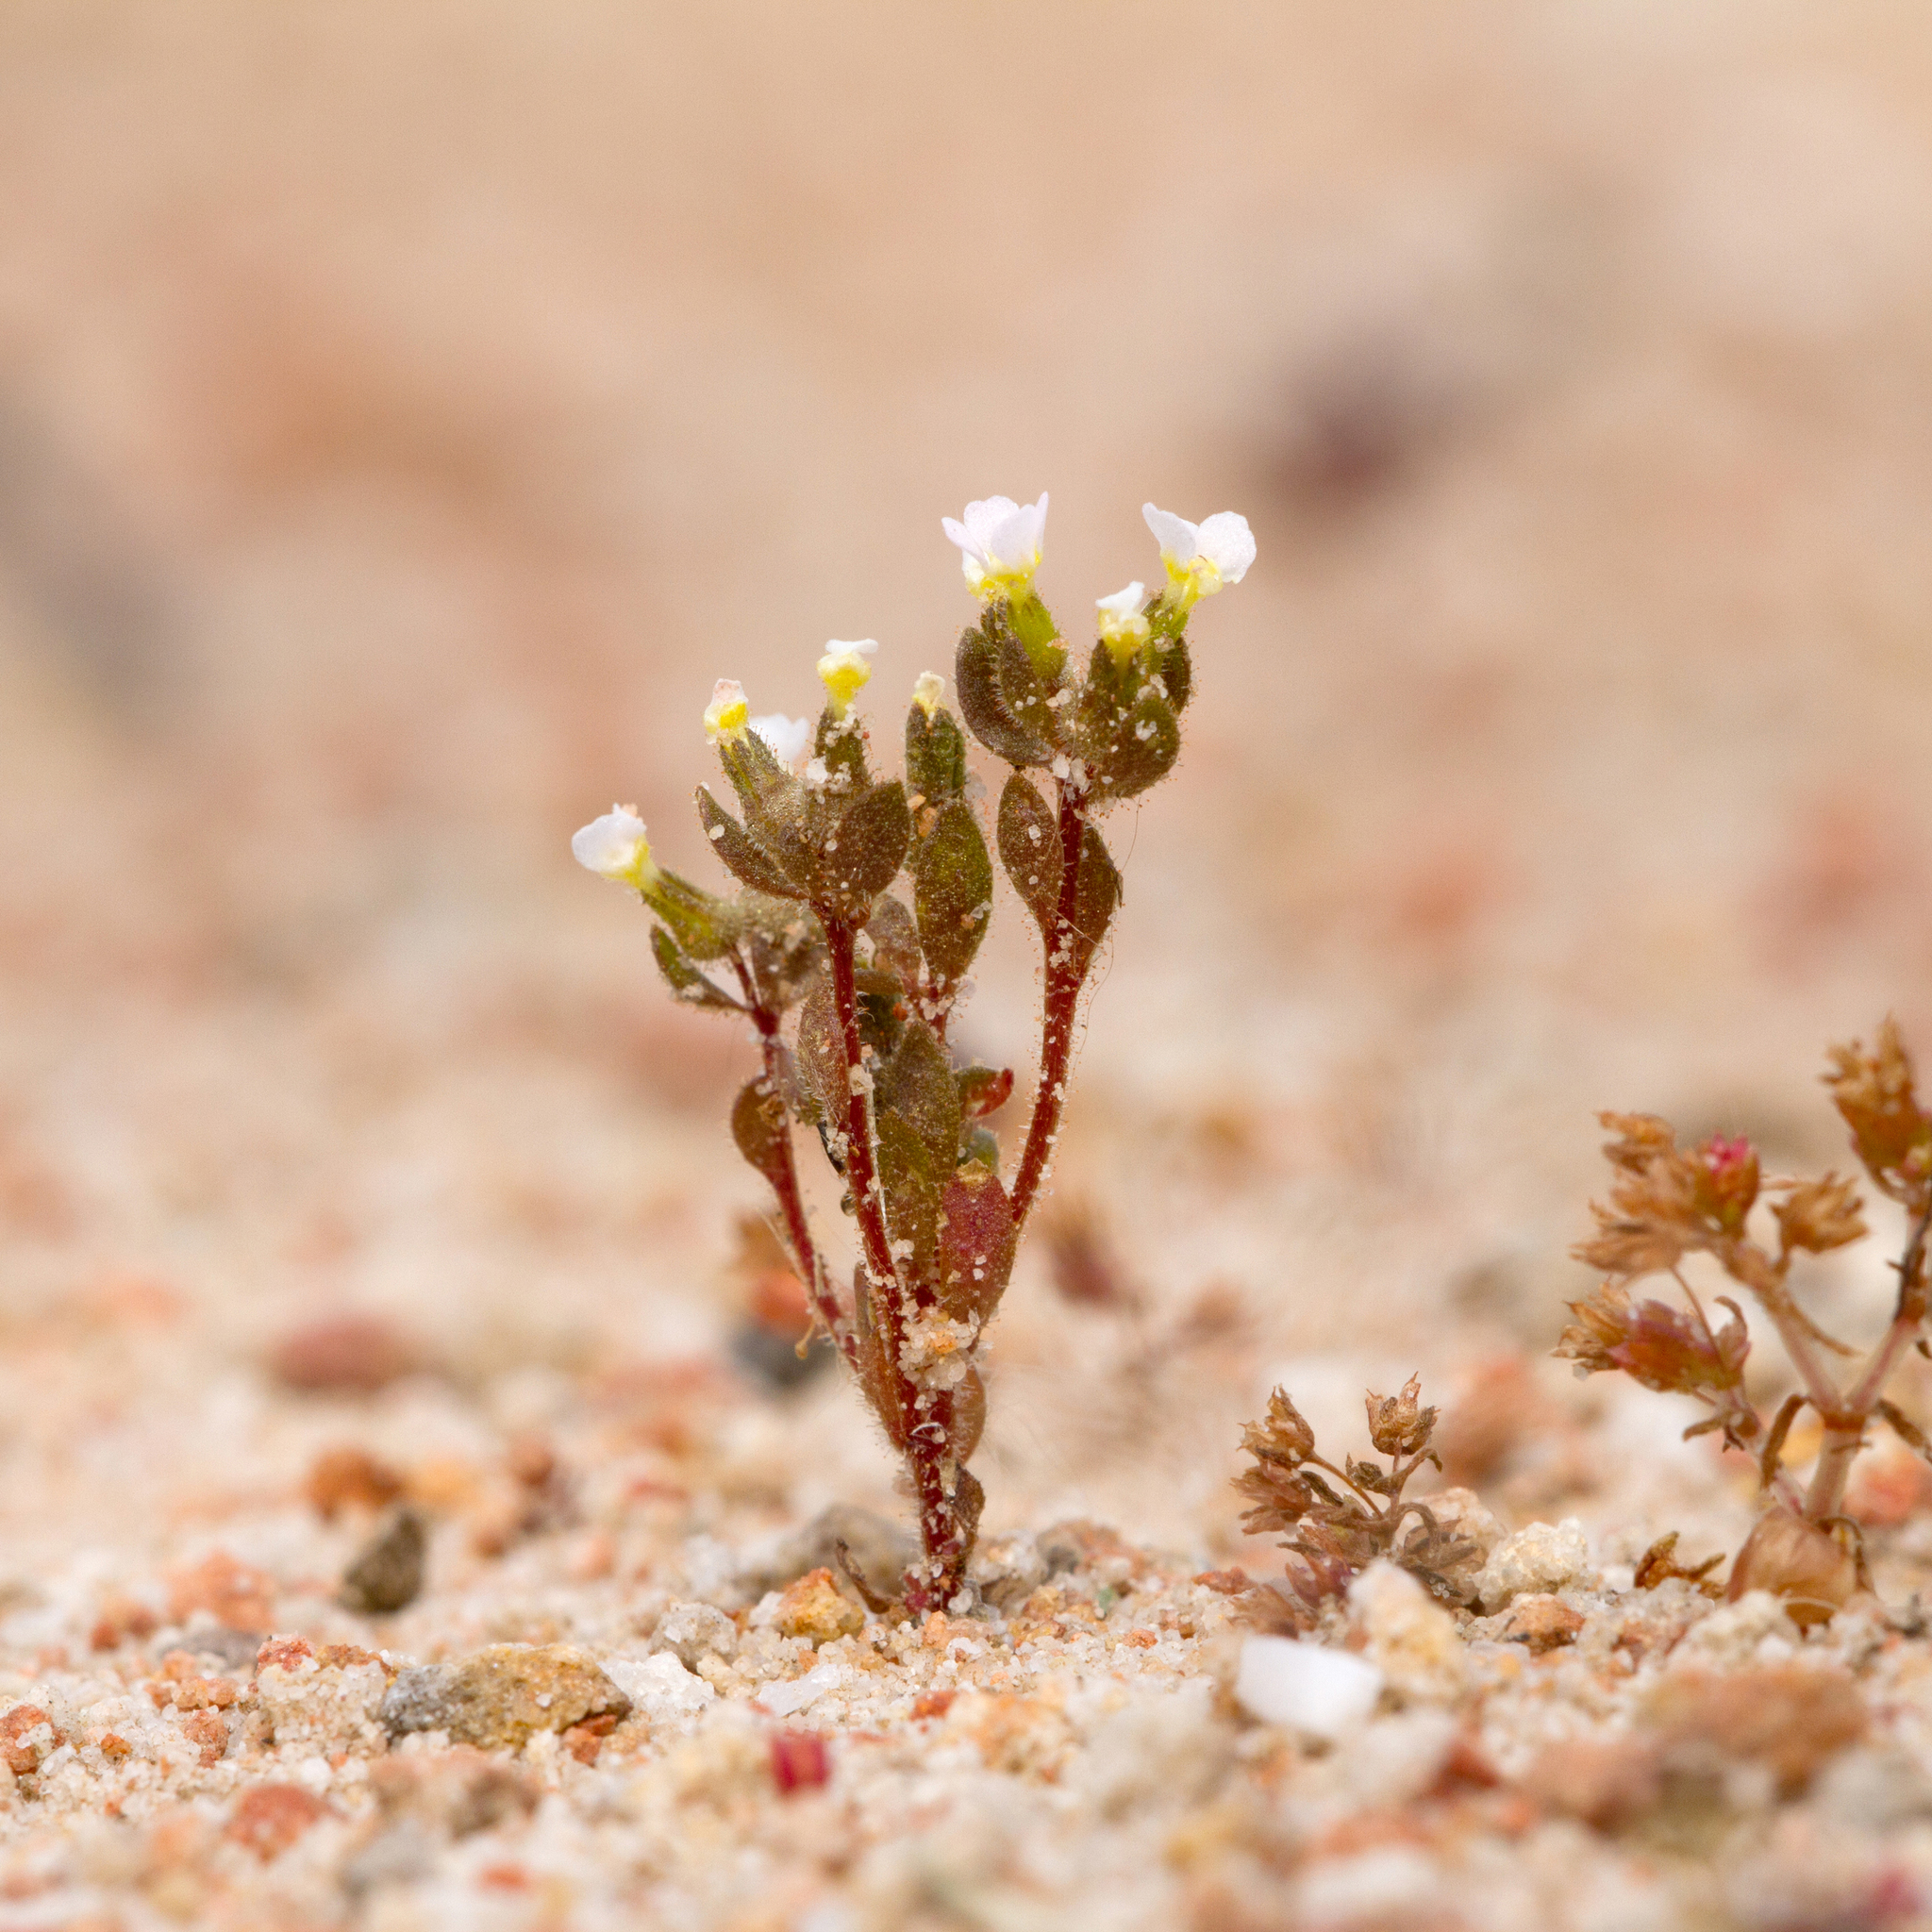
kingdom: Plantae
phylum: Tracheophyta
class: Magnoliopsida
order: Asterales
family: Stylidiaceae
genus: Levenhookia
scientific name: Levenhookia dubia
